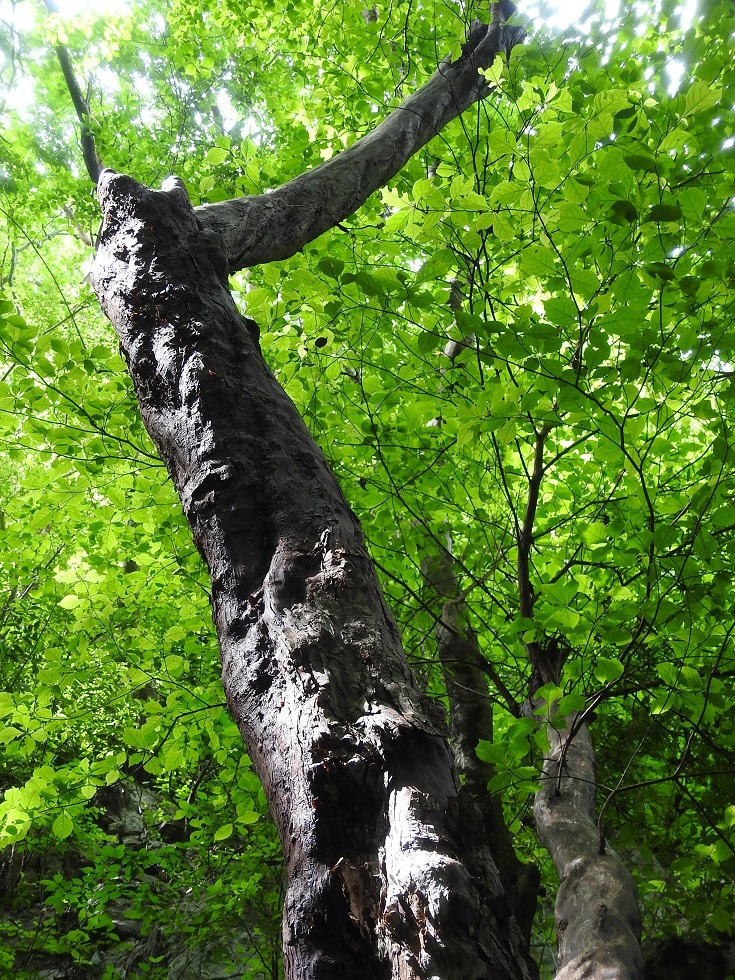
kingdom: Plantae
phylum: Tracheophyta
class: Magnoliopsida
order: Gentianales
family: Rubiaceae
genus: Calycophyllum
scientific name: Calycophyllum candidissimum
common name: Dagame
